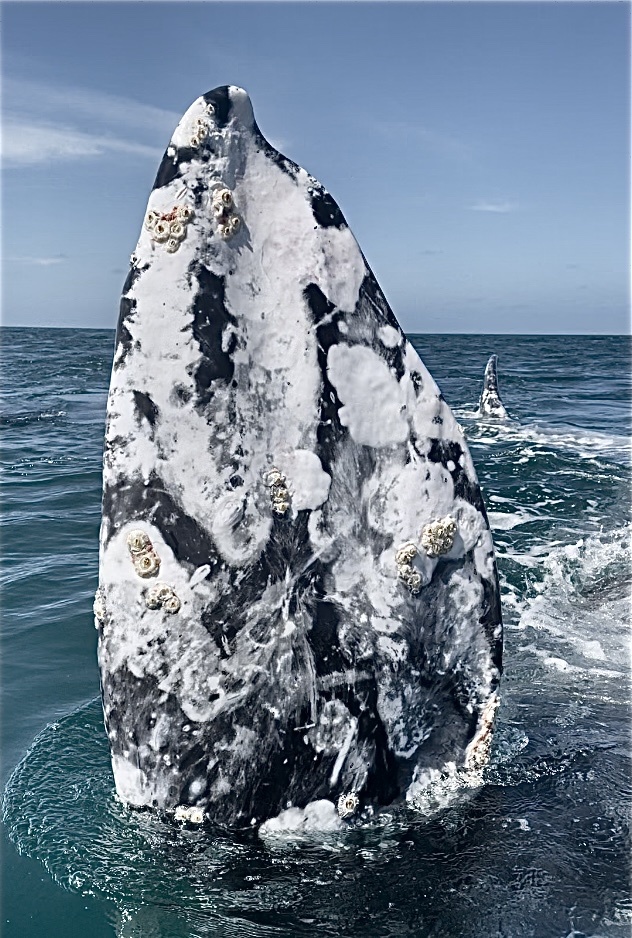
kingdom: Animalia
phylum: Chordata
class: Mammalia
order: Cetacea
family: Eschrichtiidae
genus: Eschrichtius
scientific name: Eschrichtius robustus
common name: Gray whale
